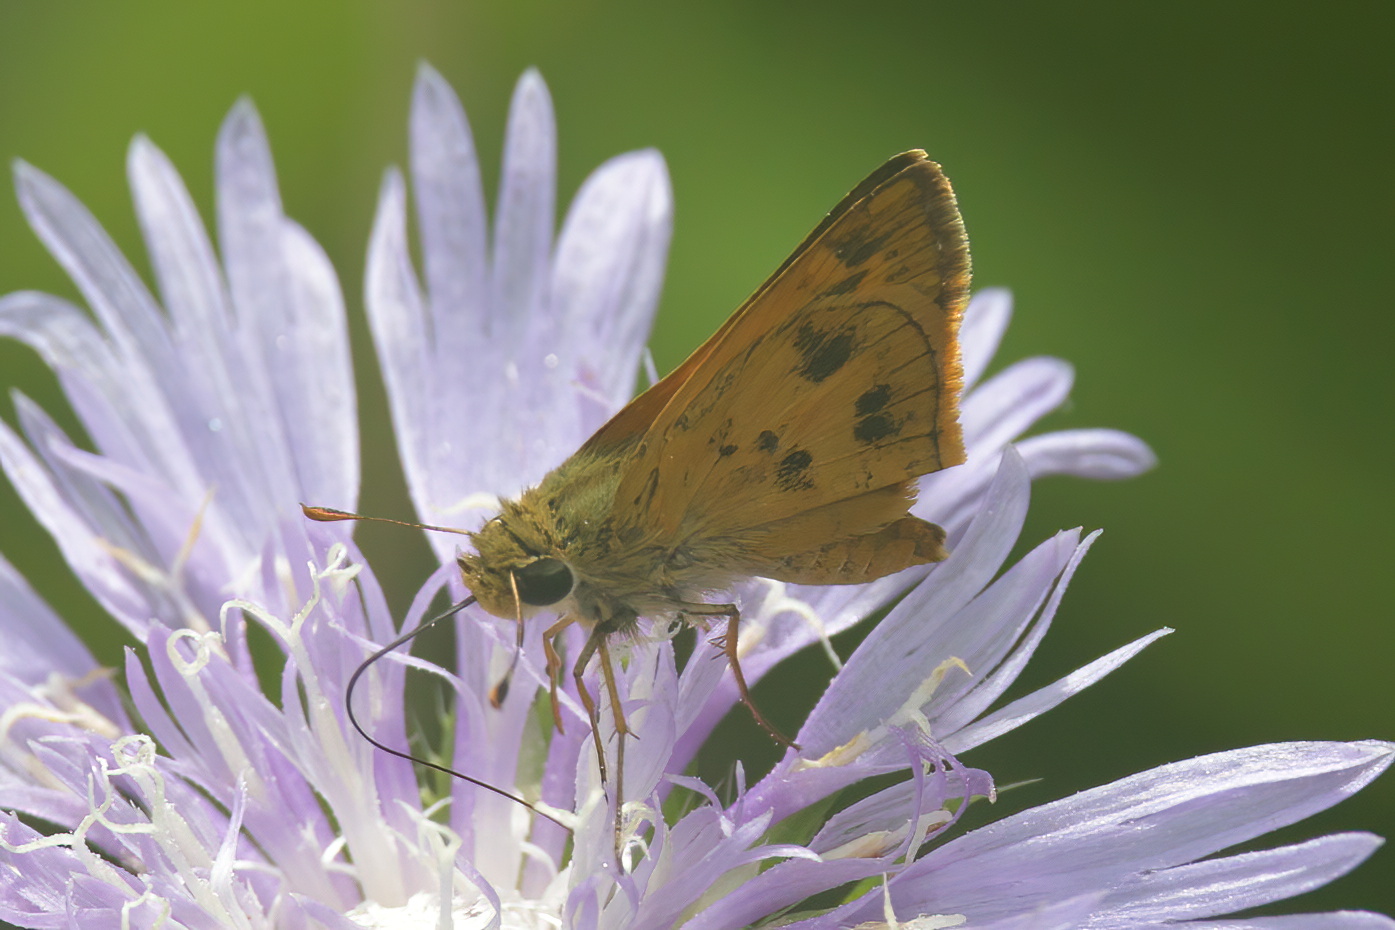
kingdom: Animalia
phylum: Arthropoda
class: Insecta
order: Lepidoptera
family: Hesperiidae
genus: Polites
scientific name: Polites vibex
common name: Whirlabout
